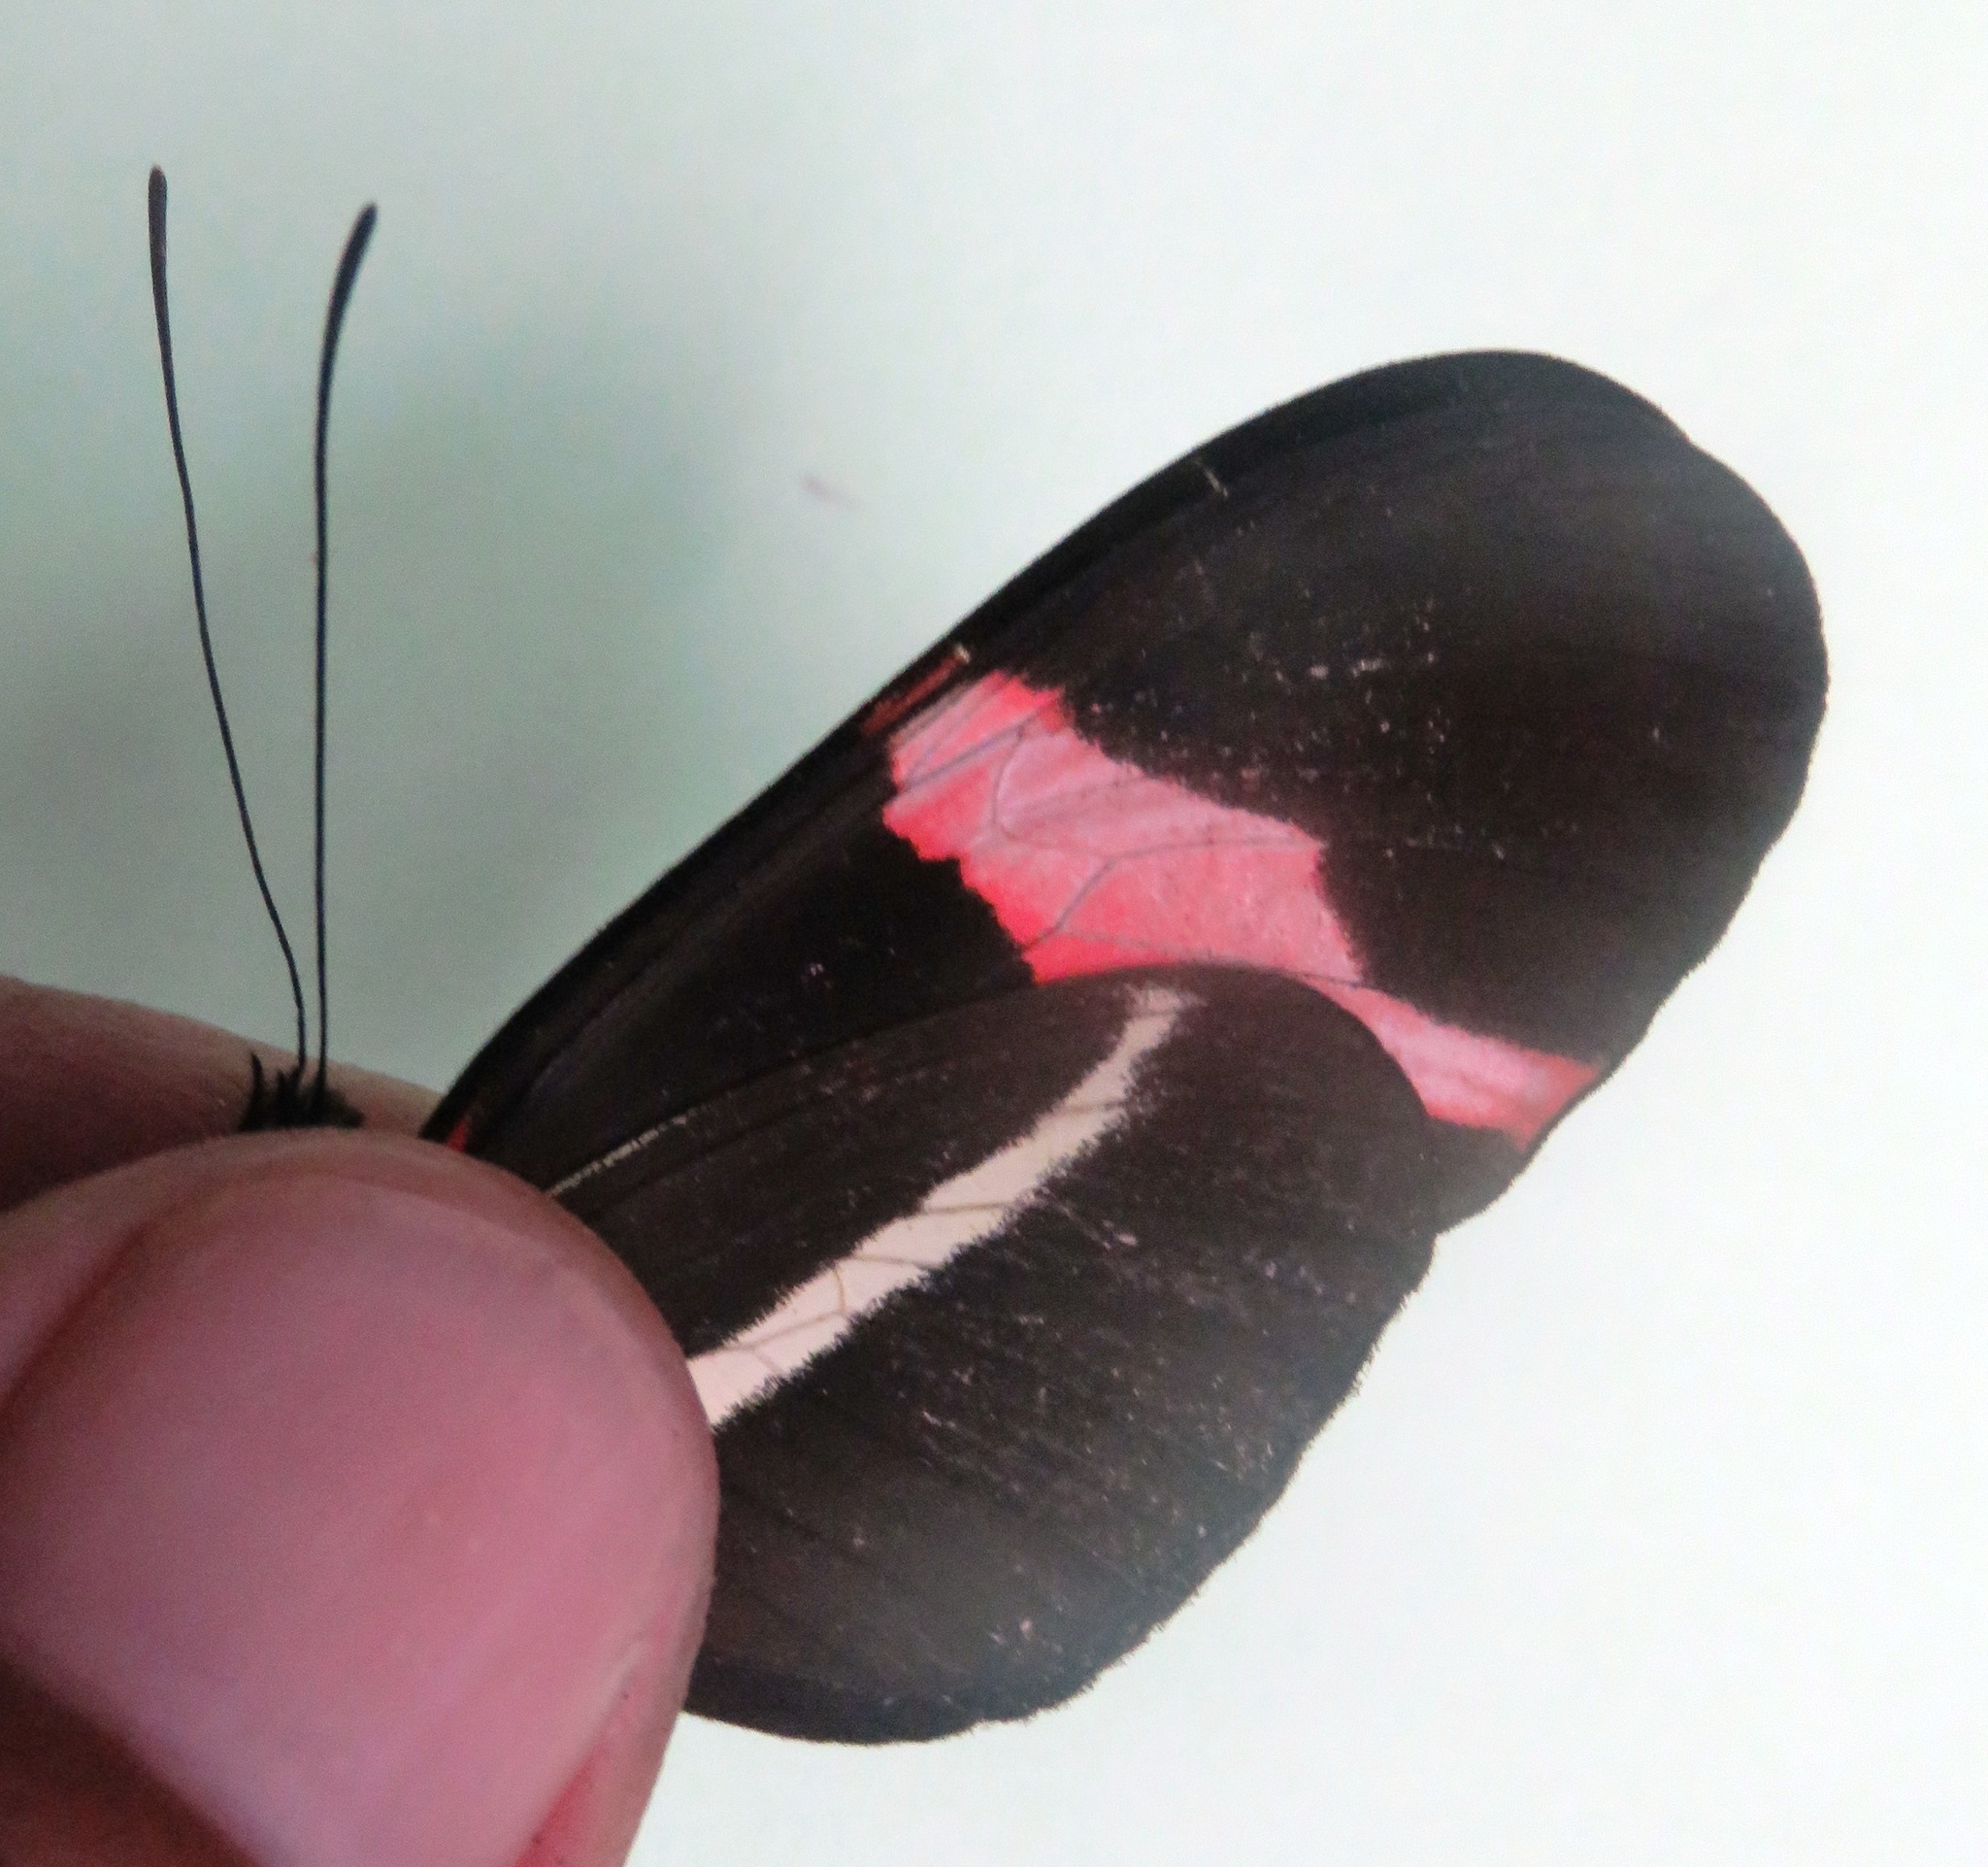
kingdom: Animalia
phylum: Arthropoda
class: Insecta
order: Lepidoptera
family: Nymphalidae
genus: Tirumala
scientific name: Tirumala petiverana
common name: Blue monarch
